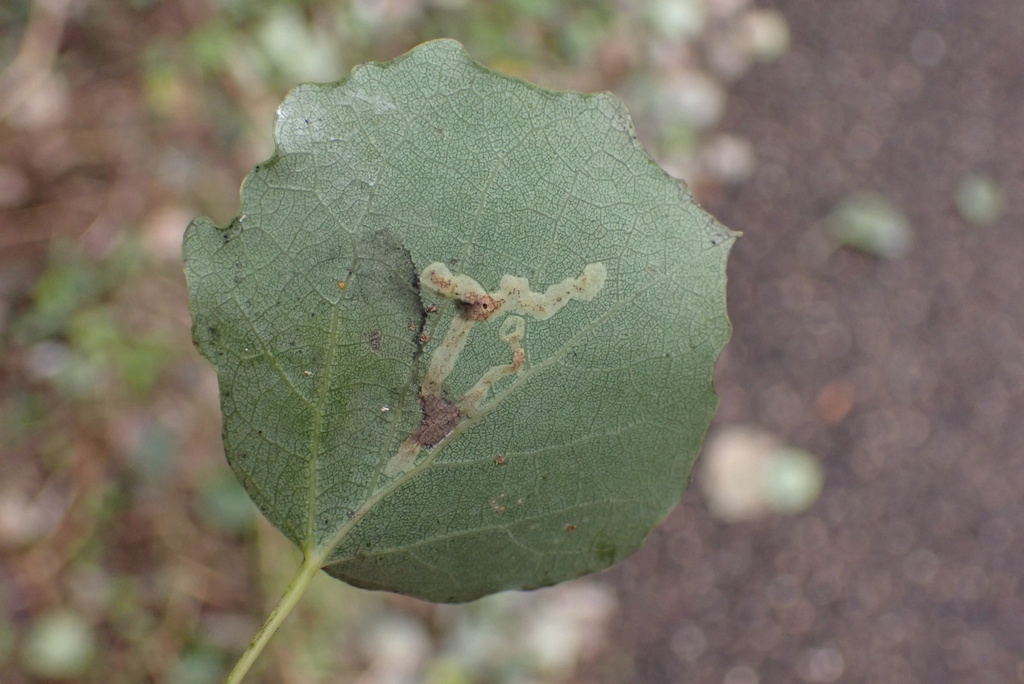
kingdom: Animalia
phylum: Arthropoda
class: Insecta
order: Diptera
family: Agromyzidae
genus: Aulagromyza
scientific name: Aulagromyza tremulae
